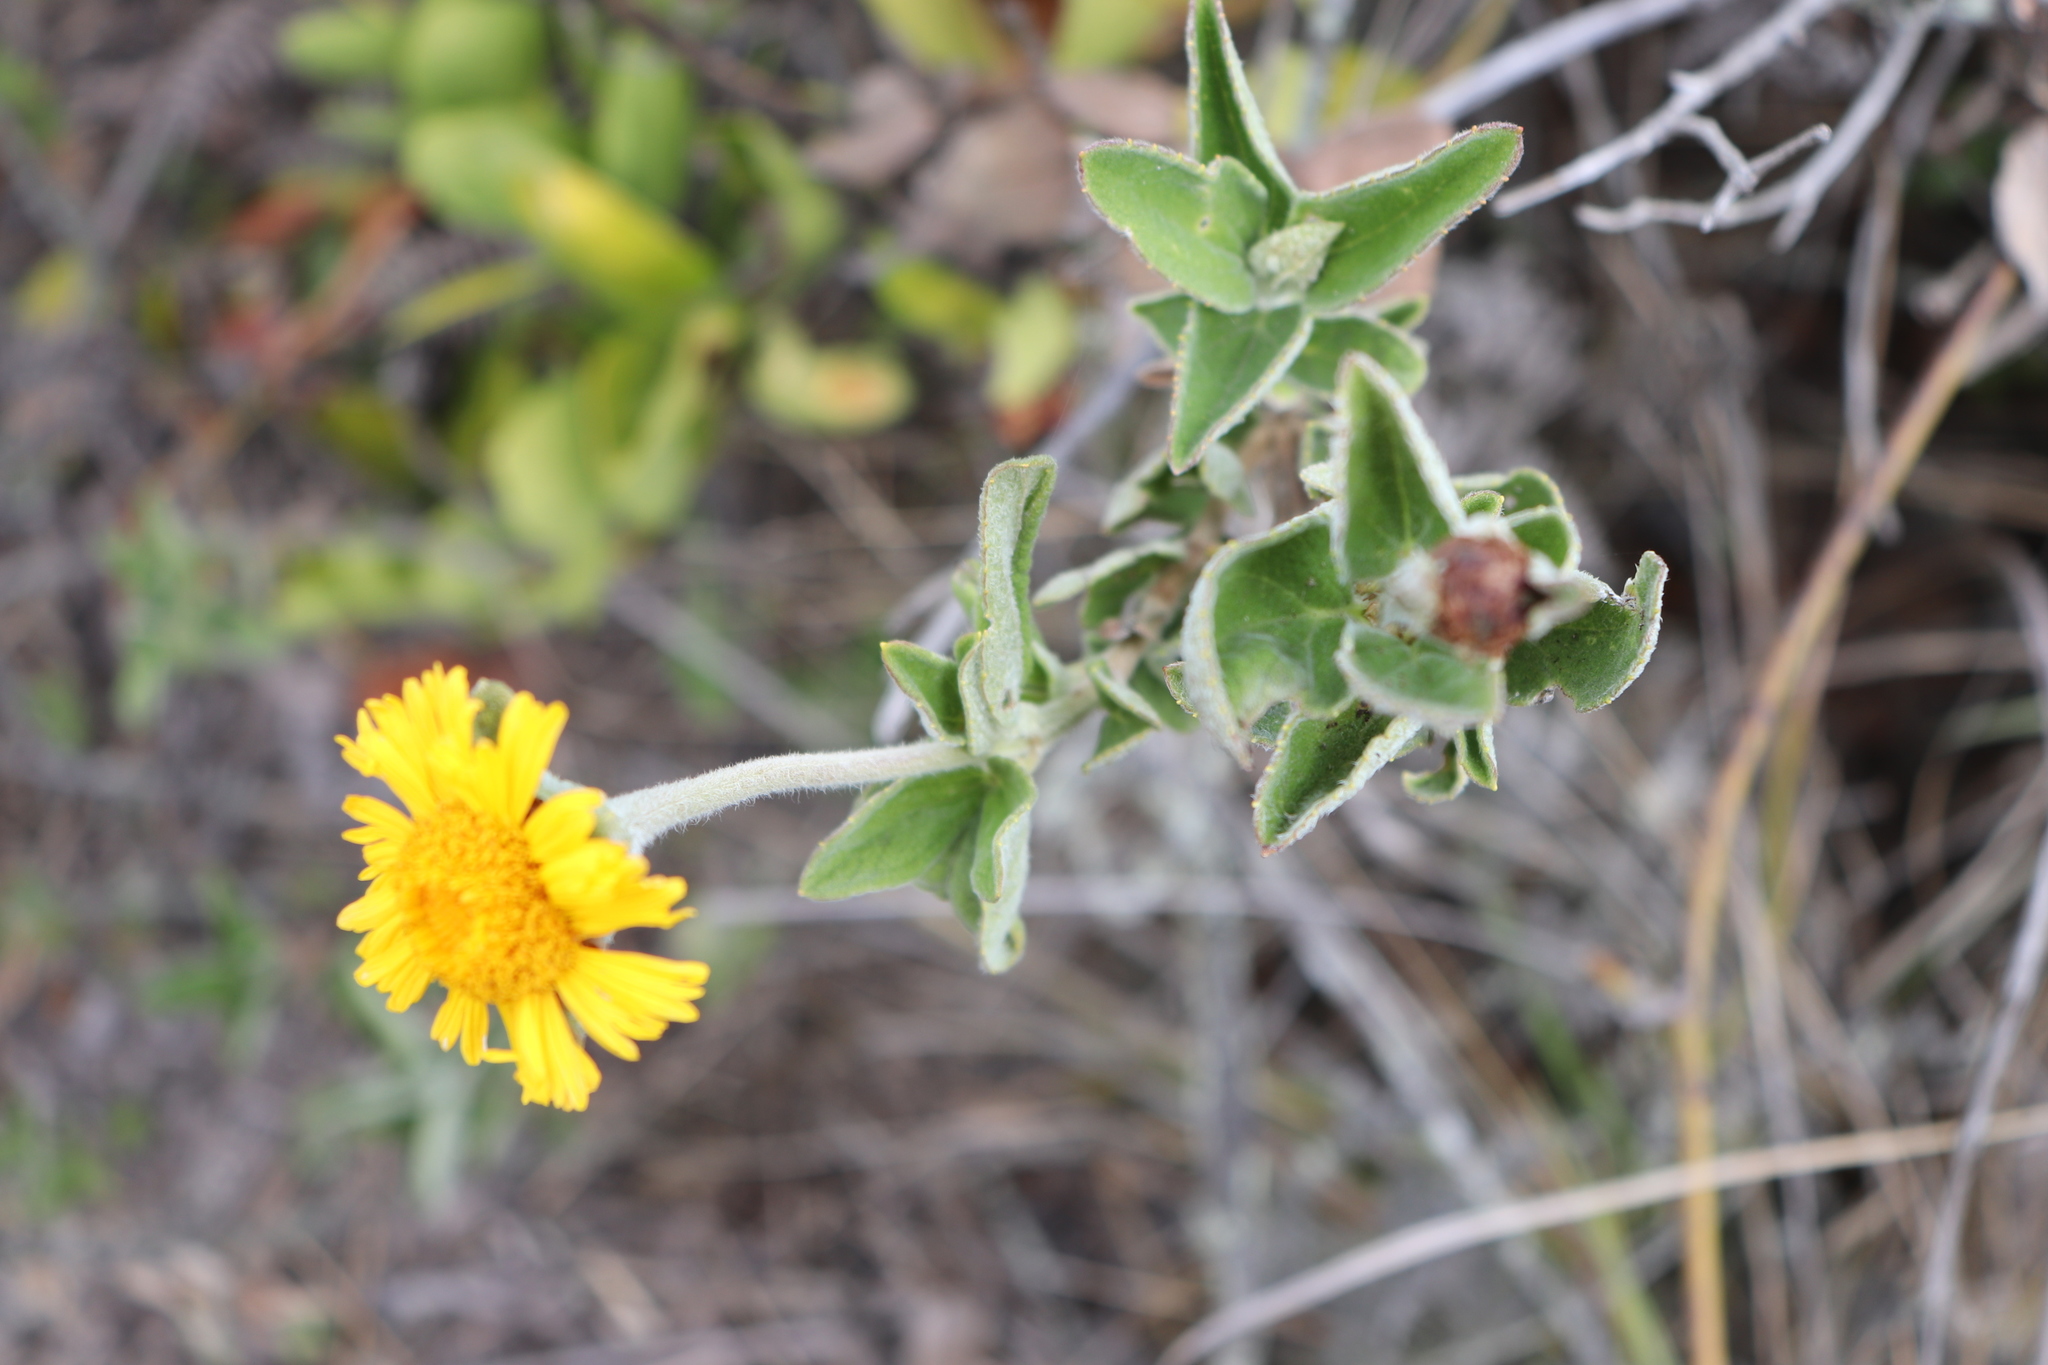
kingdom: Plantae
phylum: Tracheophyta
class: Magnoliopsida
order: Asterales
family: Asteraceae
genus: Calea
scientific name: Calea peruviana
